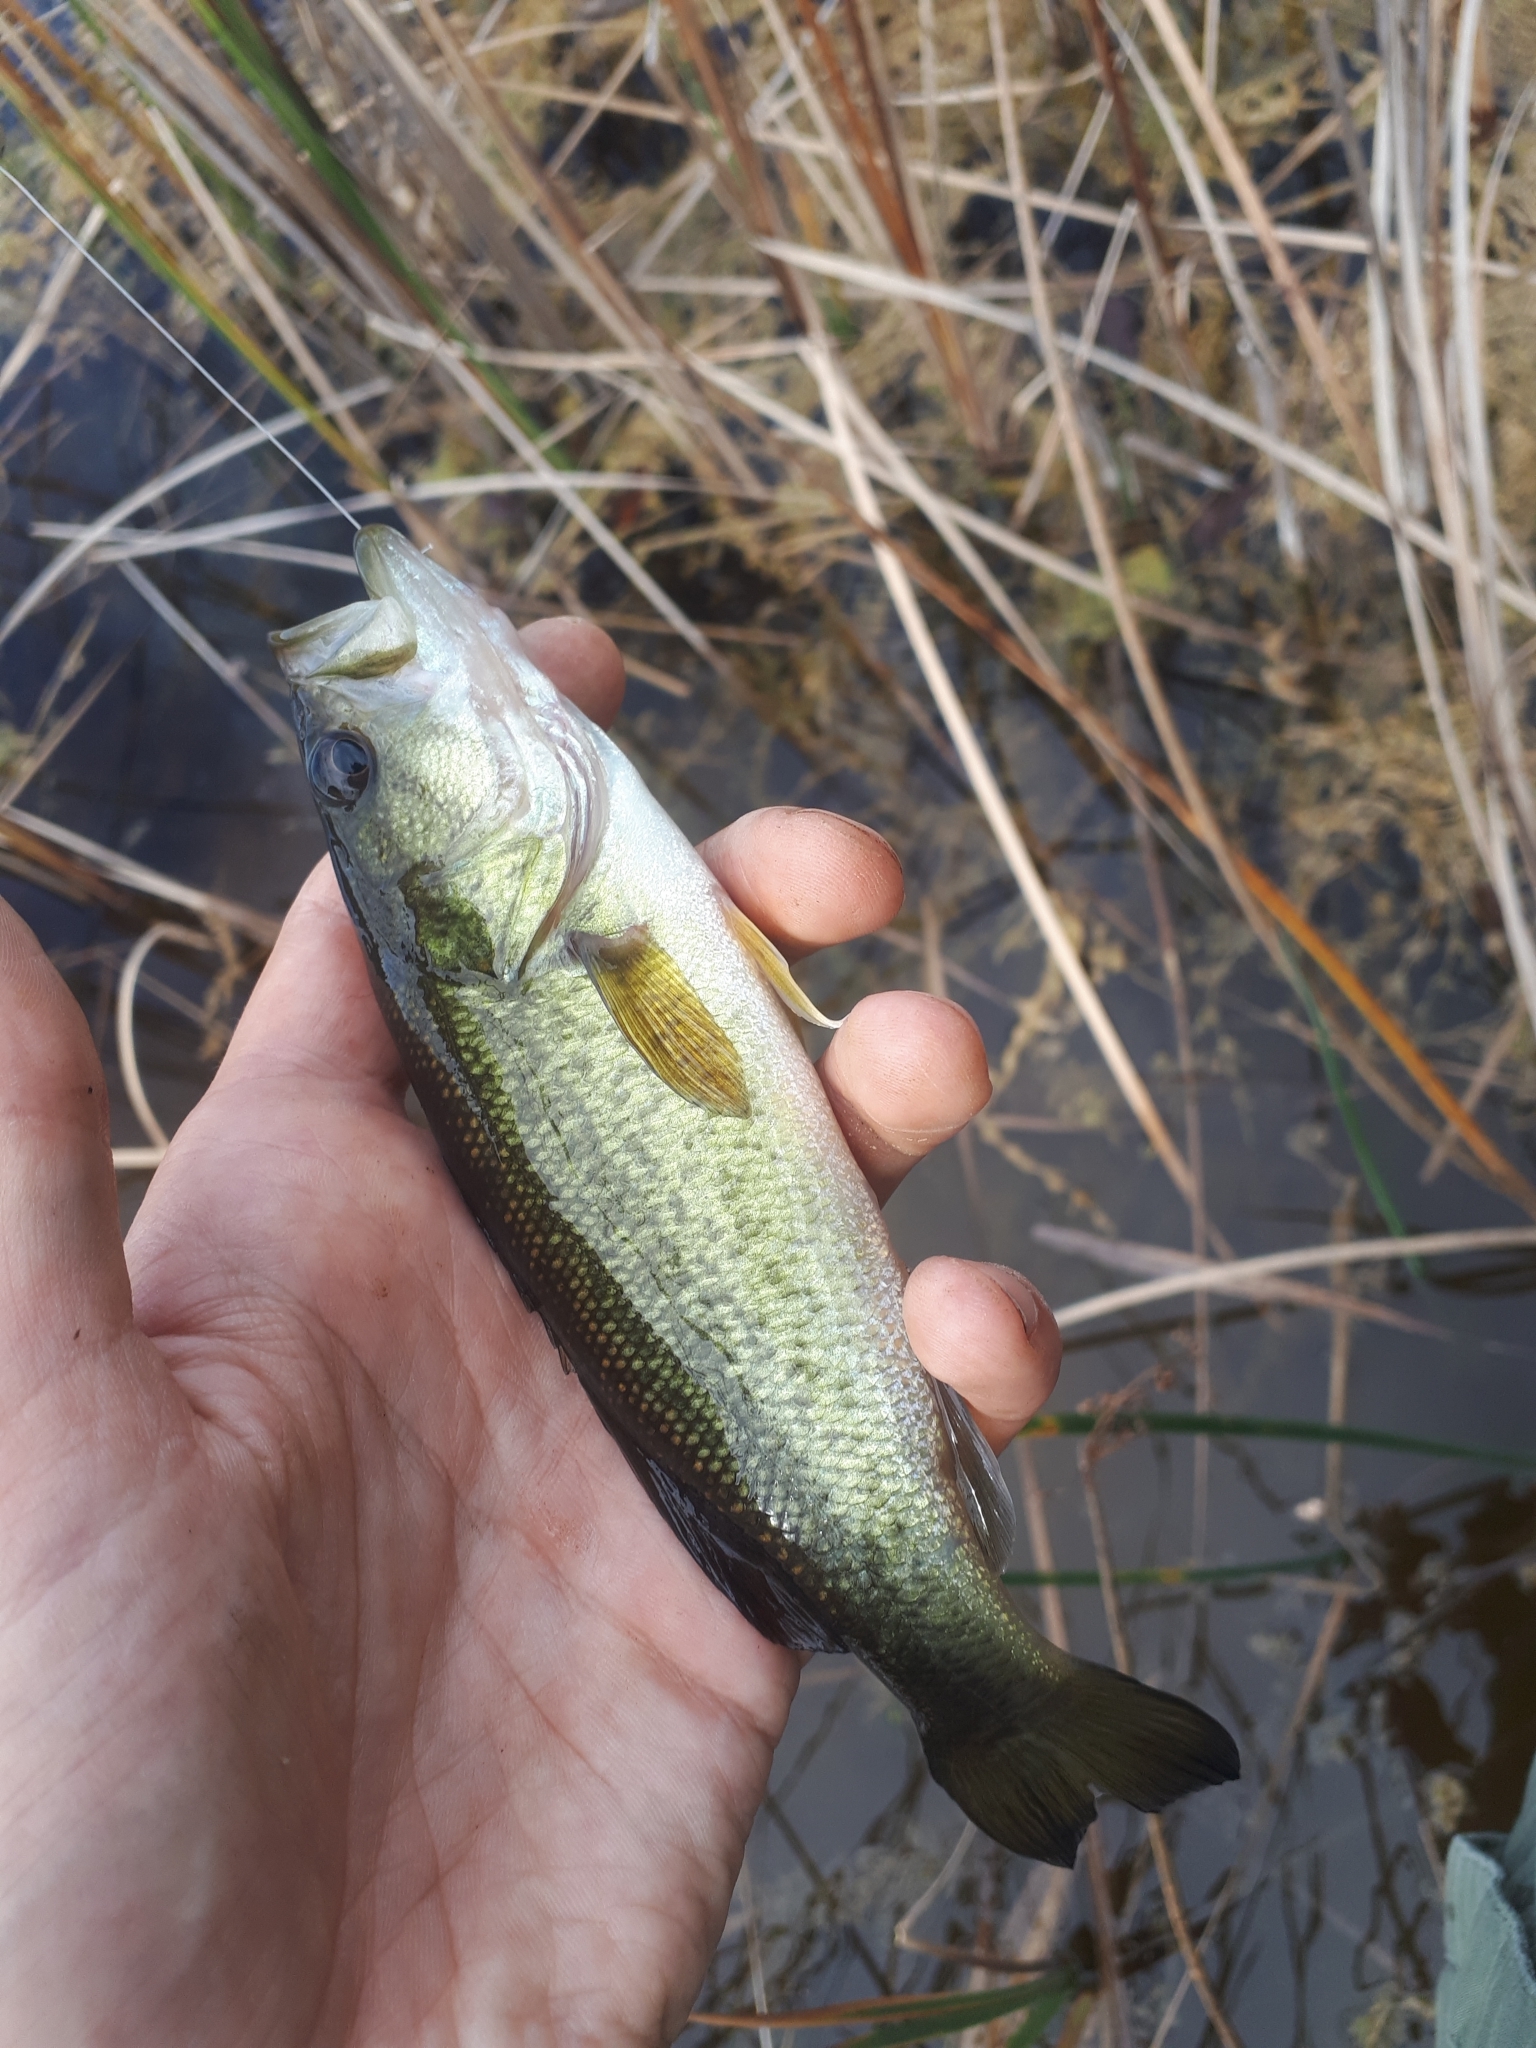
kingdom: Animalia
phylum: Chordata
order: Perciformes
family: Centrarchidae
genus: Micropterus
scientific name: Micropterus
